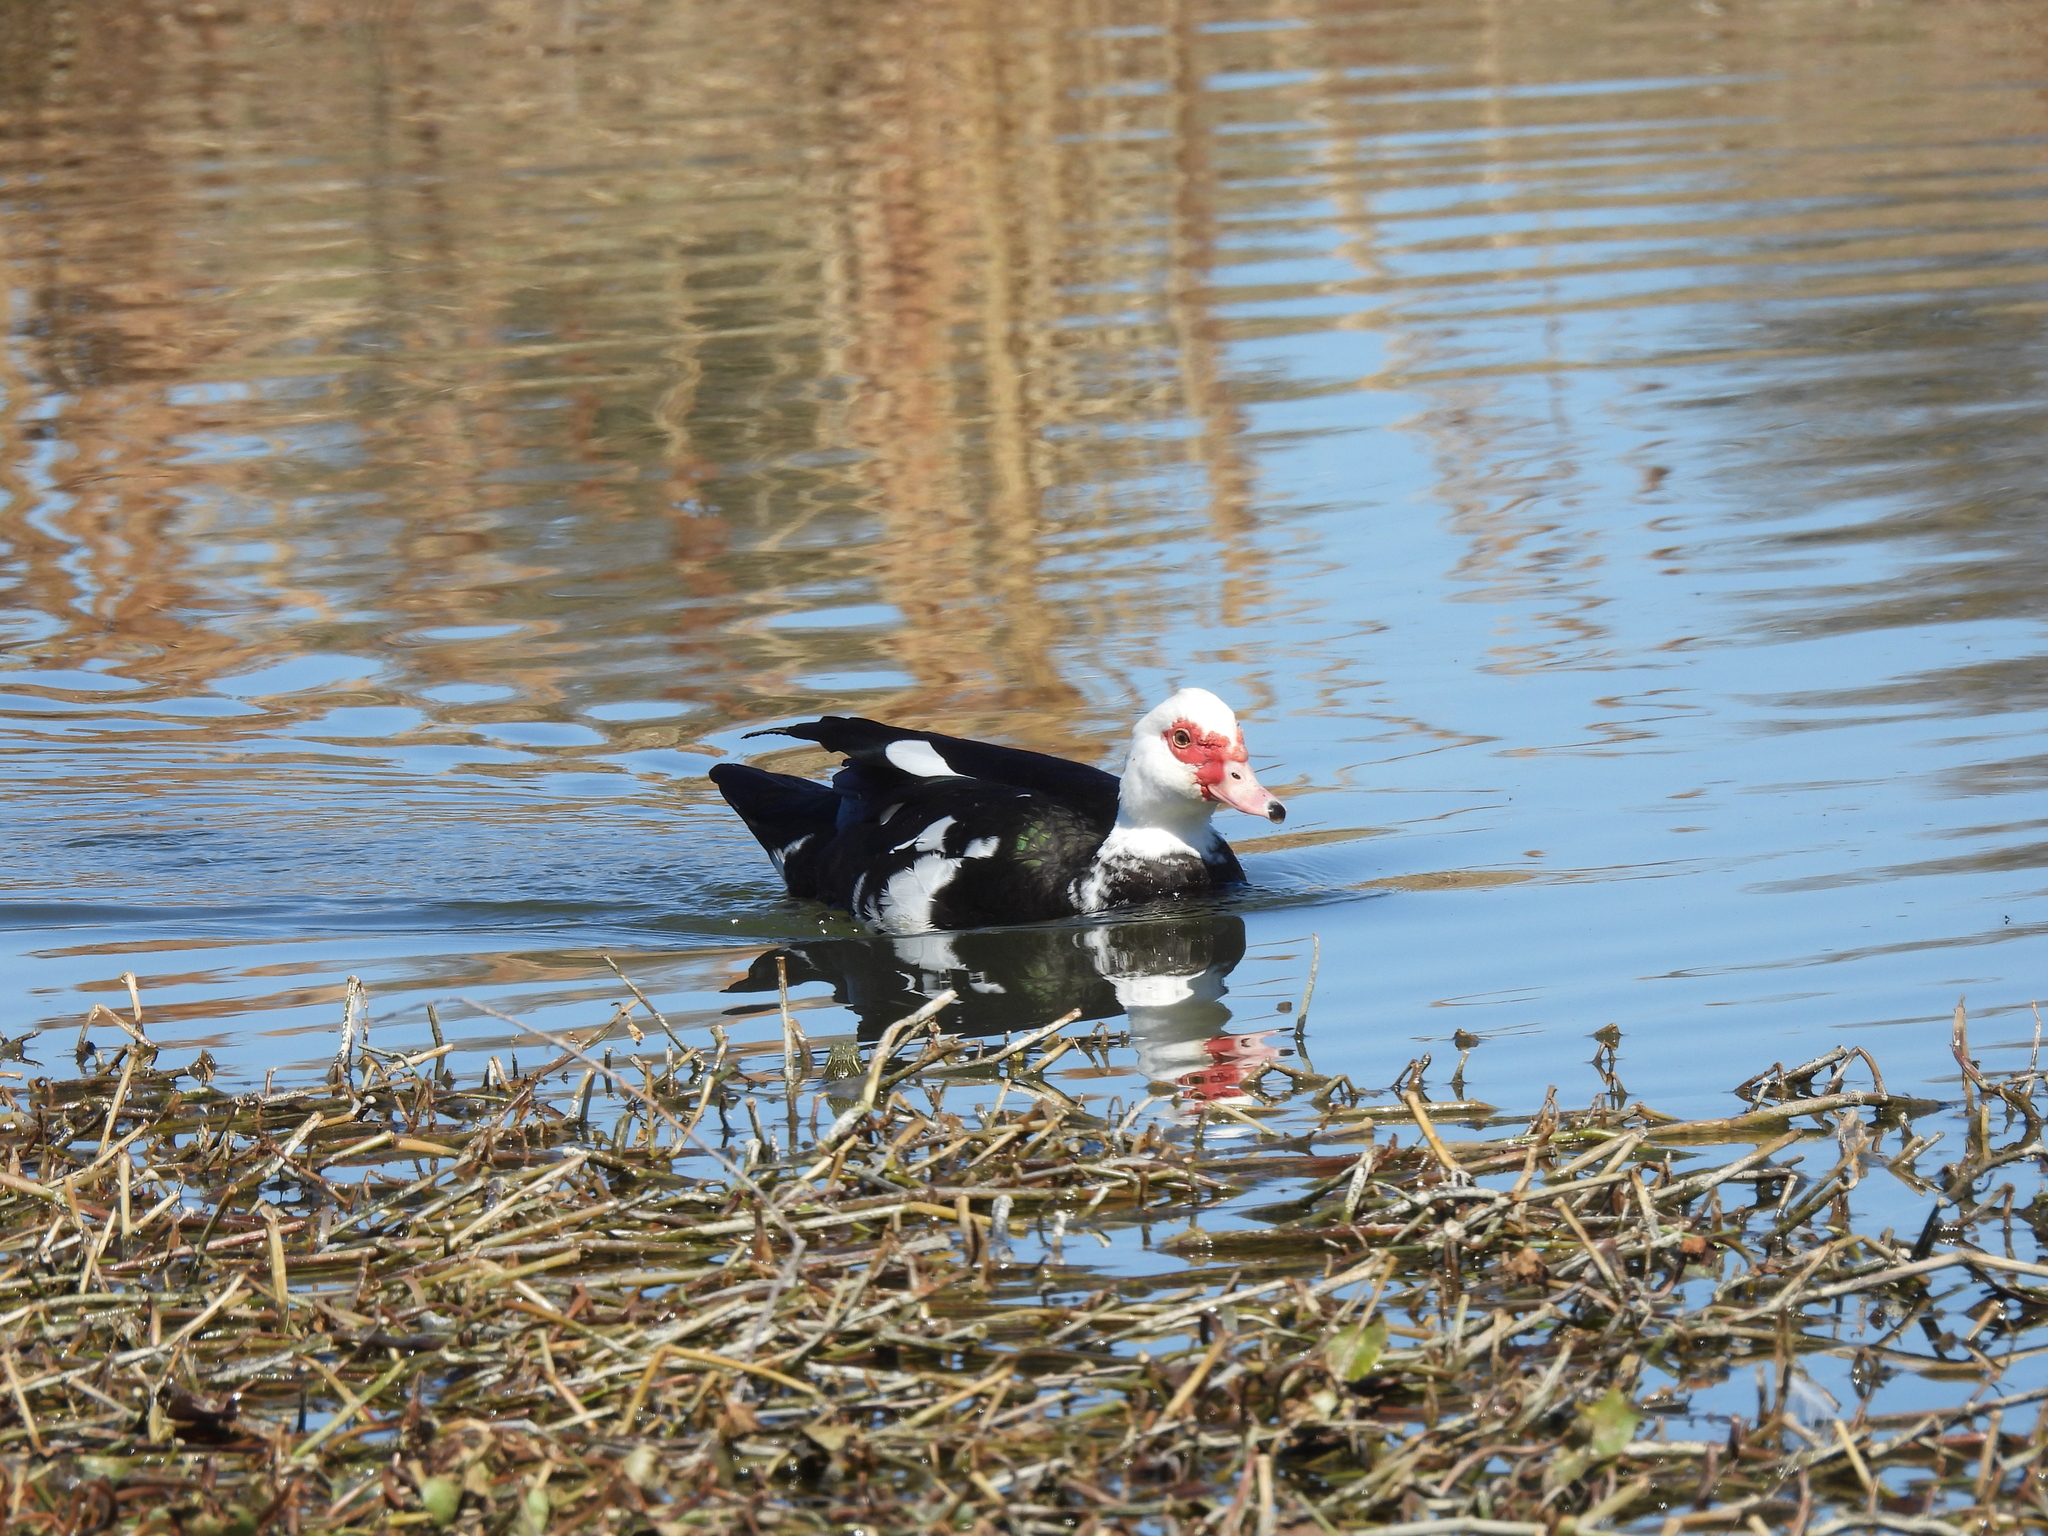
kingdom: Animalia
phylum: Chordata
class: Aves
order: Anseriformes
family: Anatidae
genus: Cairina
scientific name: Cairina moschata
